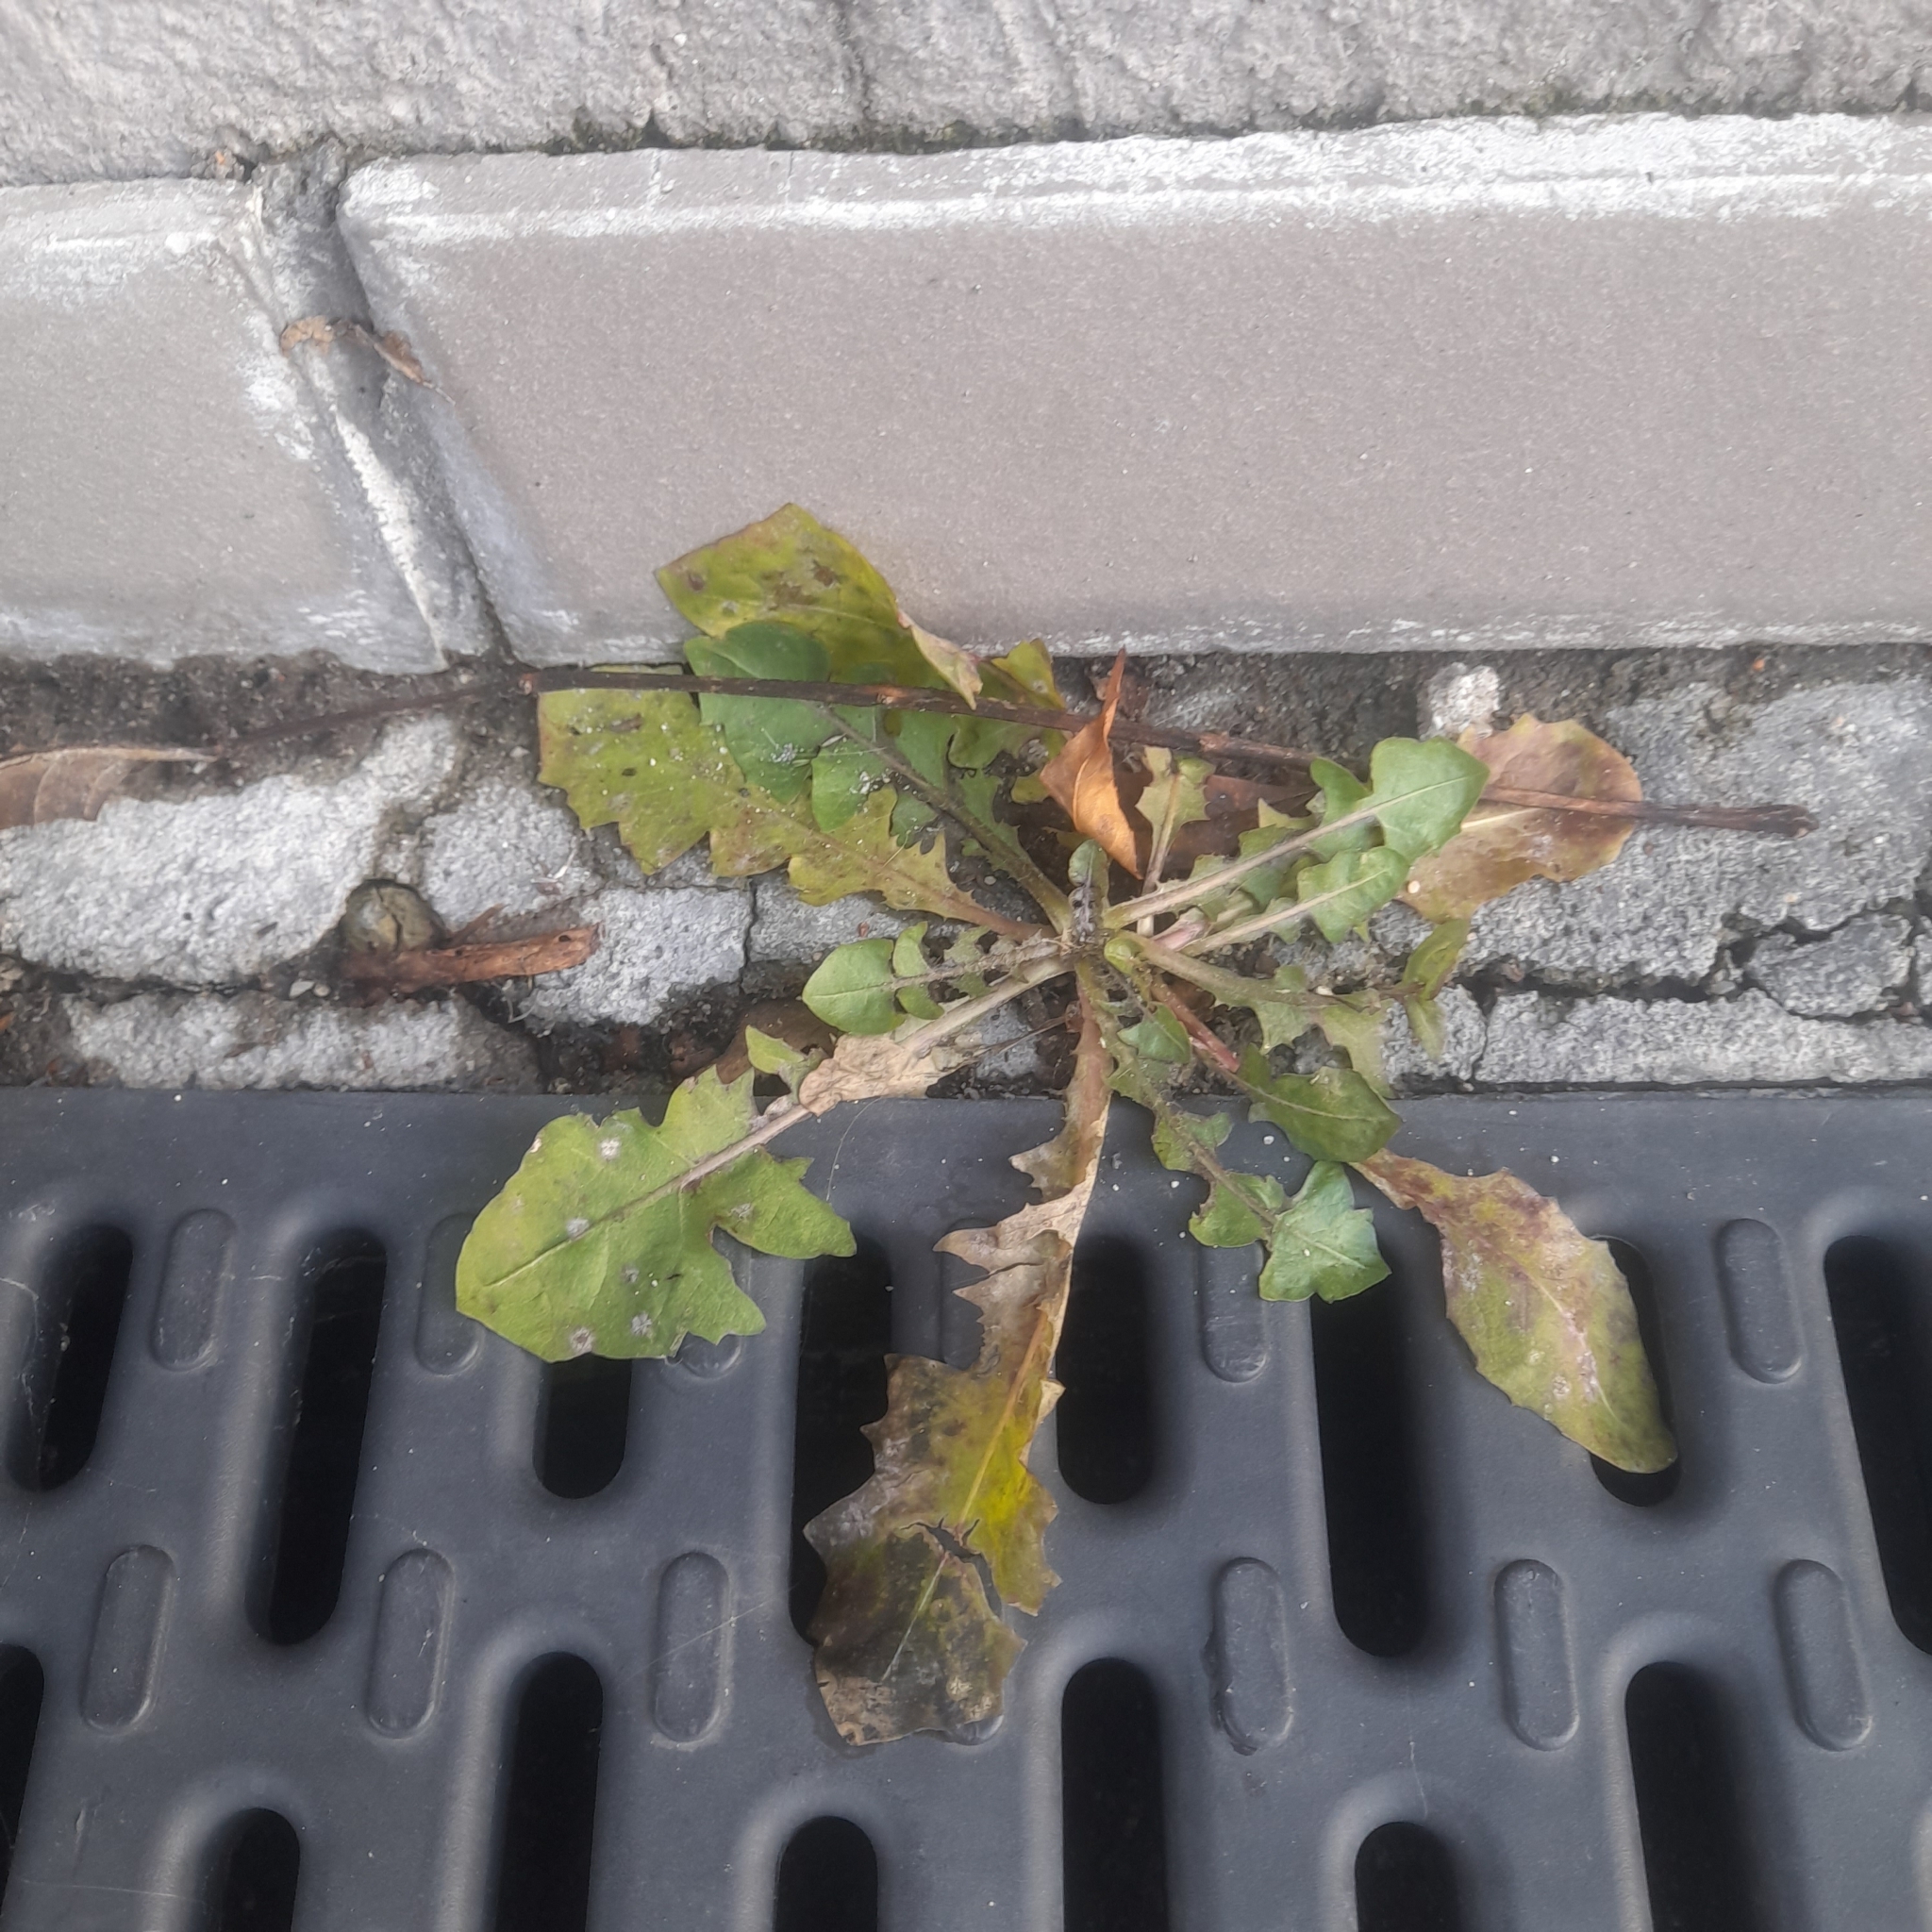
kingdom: Plantae
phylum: Tracheophyta
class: Magnoliopsida
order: Asterales
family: Asteraceae
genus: Taraxacum
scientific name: Taraxacum officinale
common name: Common dandelion
